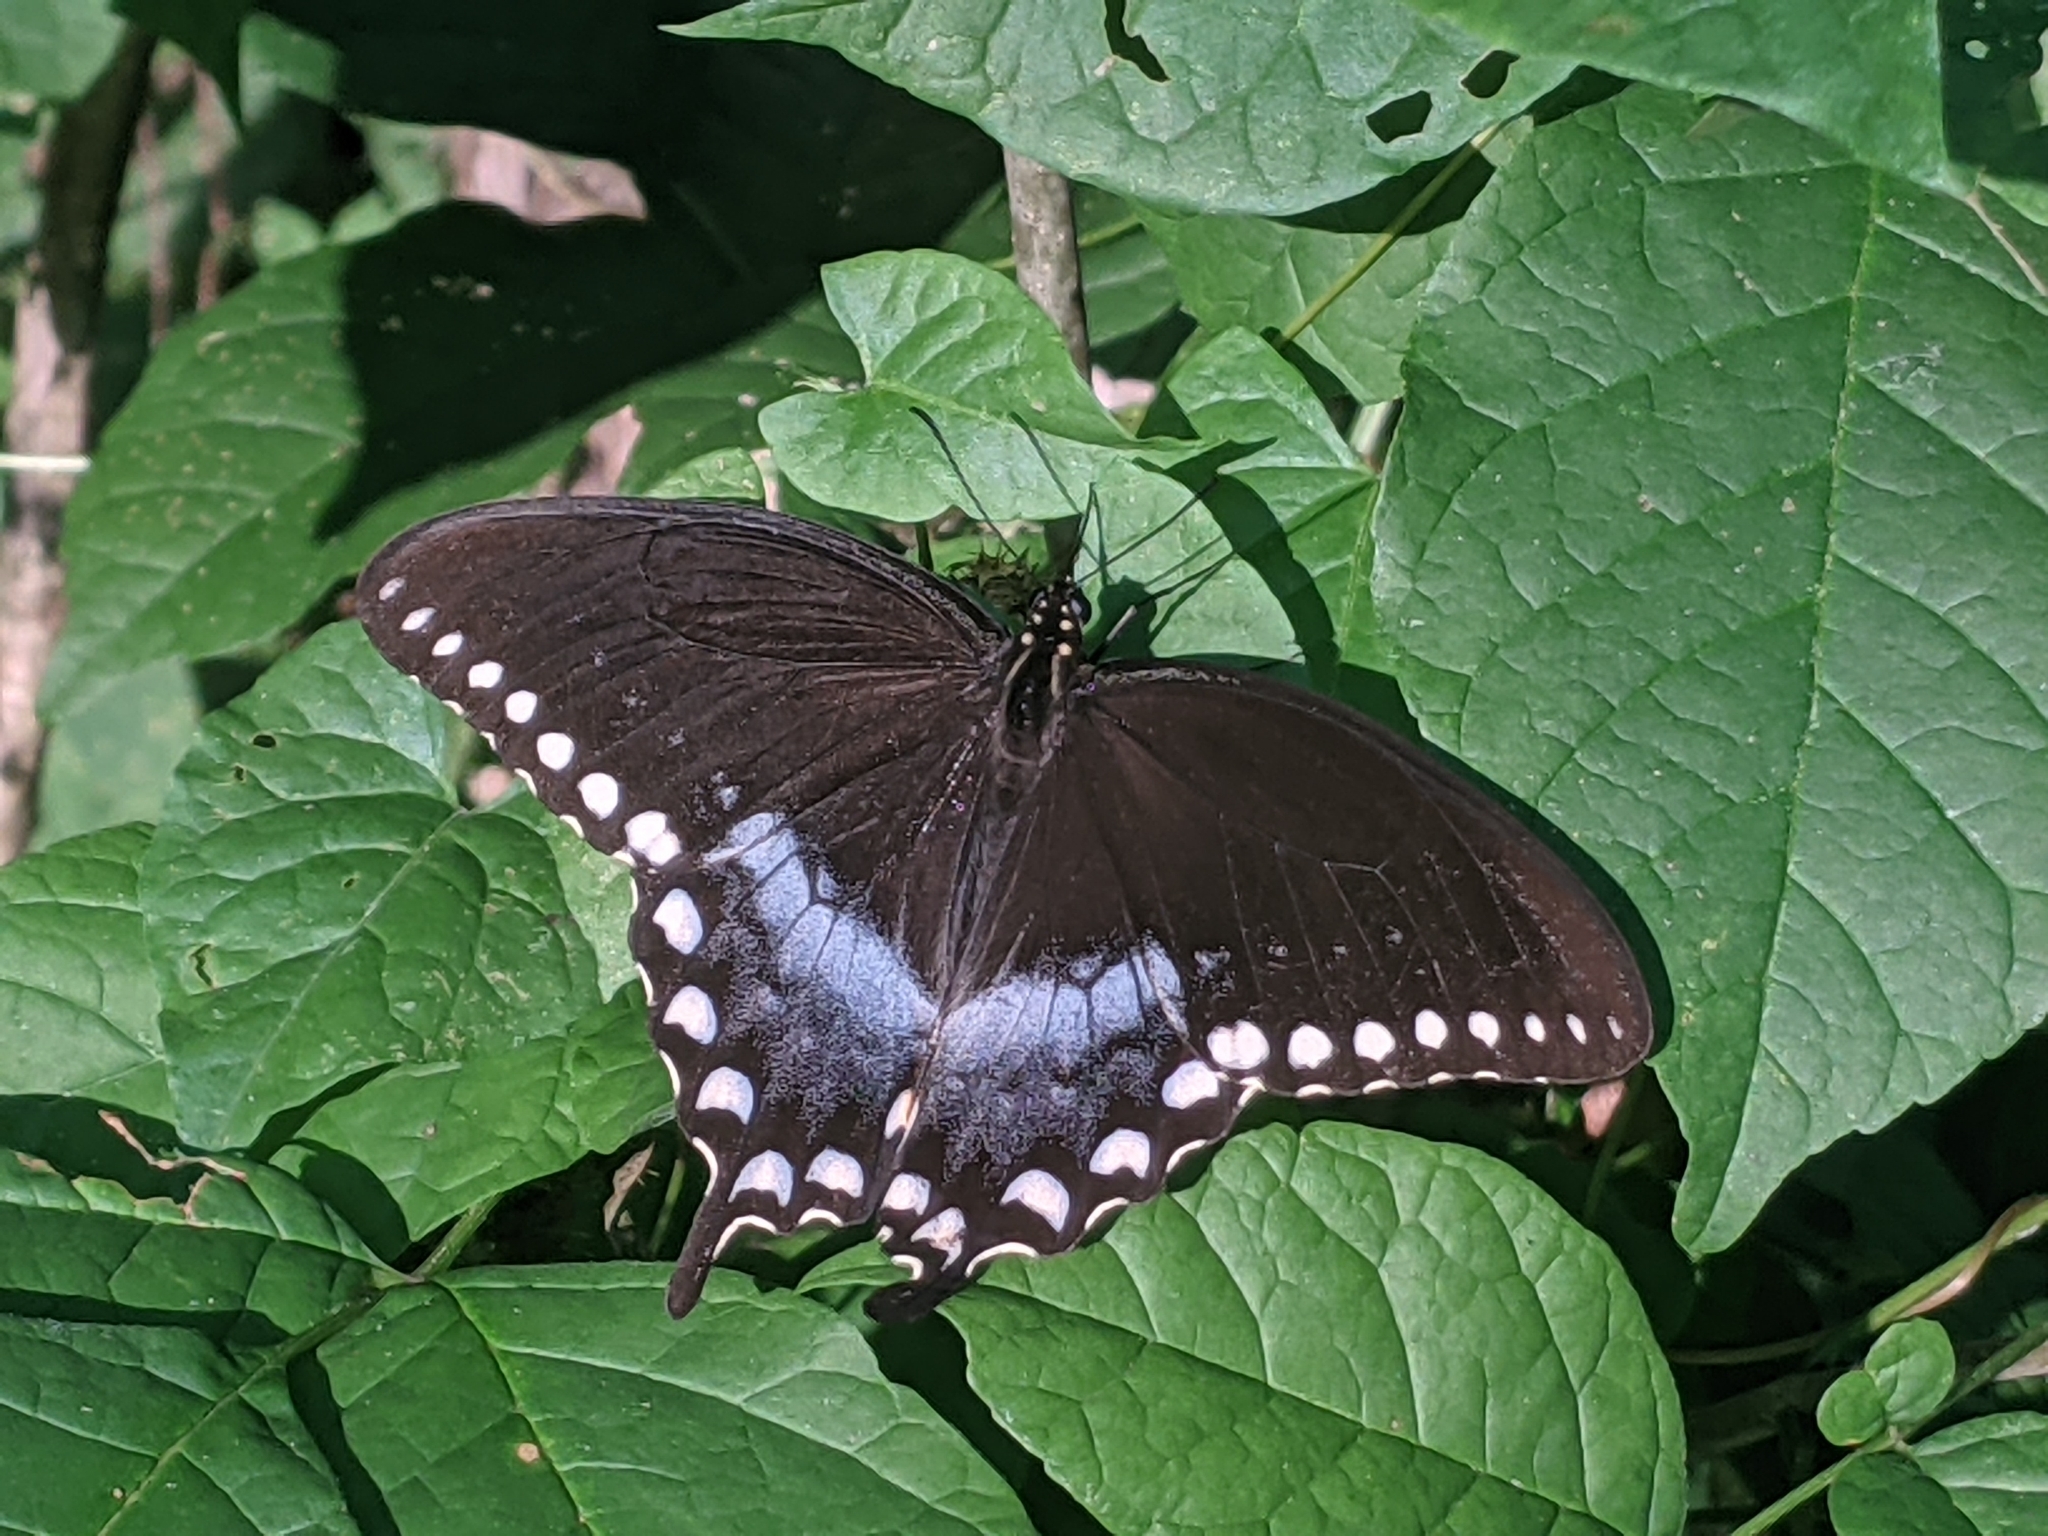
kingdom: Animalia
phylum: Arthropoda
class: Insecta
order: Lepidoptera
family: Papilionidae
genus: Papilio
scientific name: Papilio troilus
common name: Spicebush swallowtail
